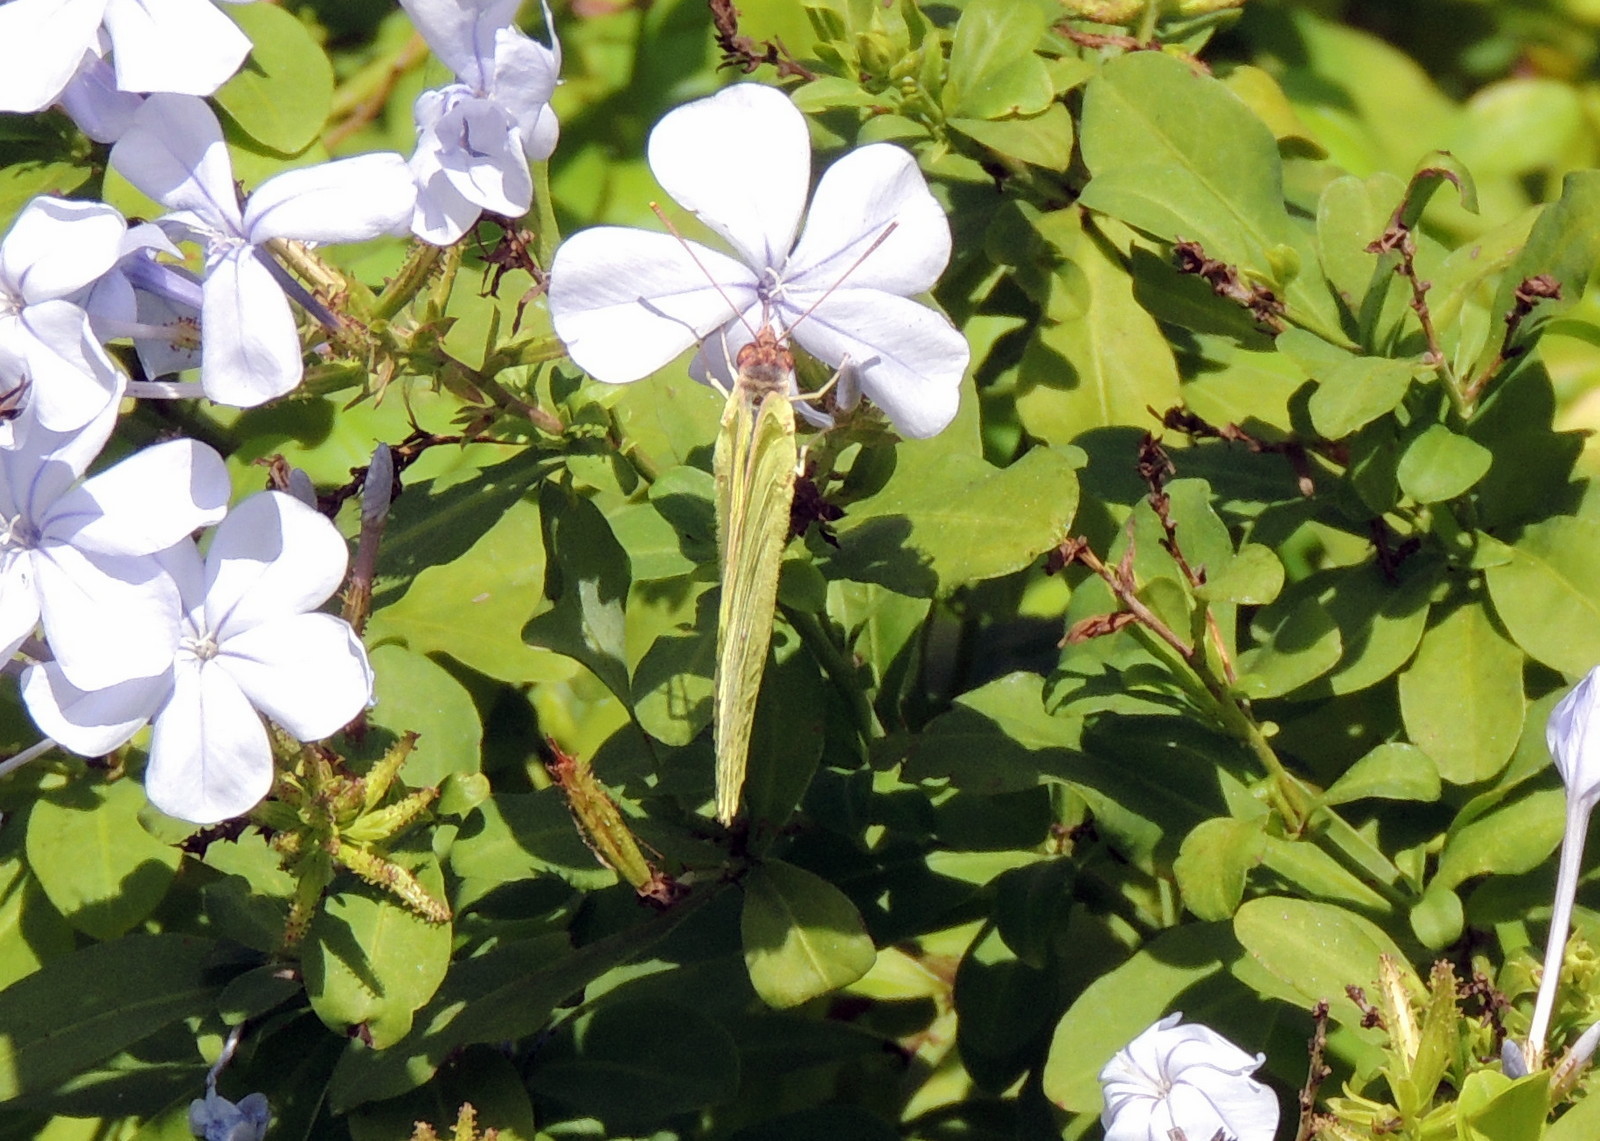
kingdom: Animalia
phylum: Arthropoda
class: Insecta
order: Lepidoptera
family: Pieridae
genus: Phoebis
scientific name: Phoebis sennae
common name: Cloudless sulphur
